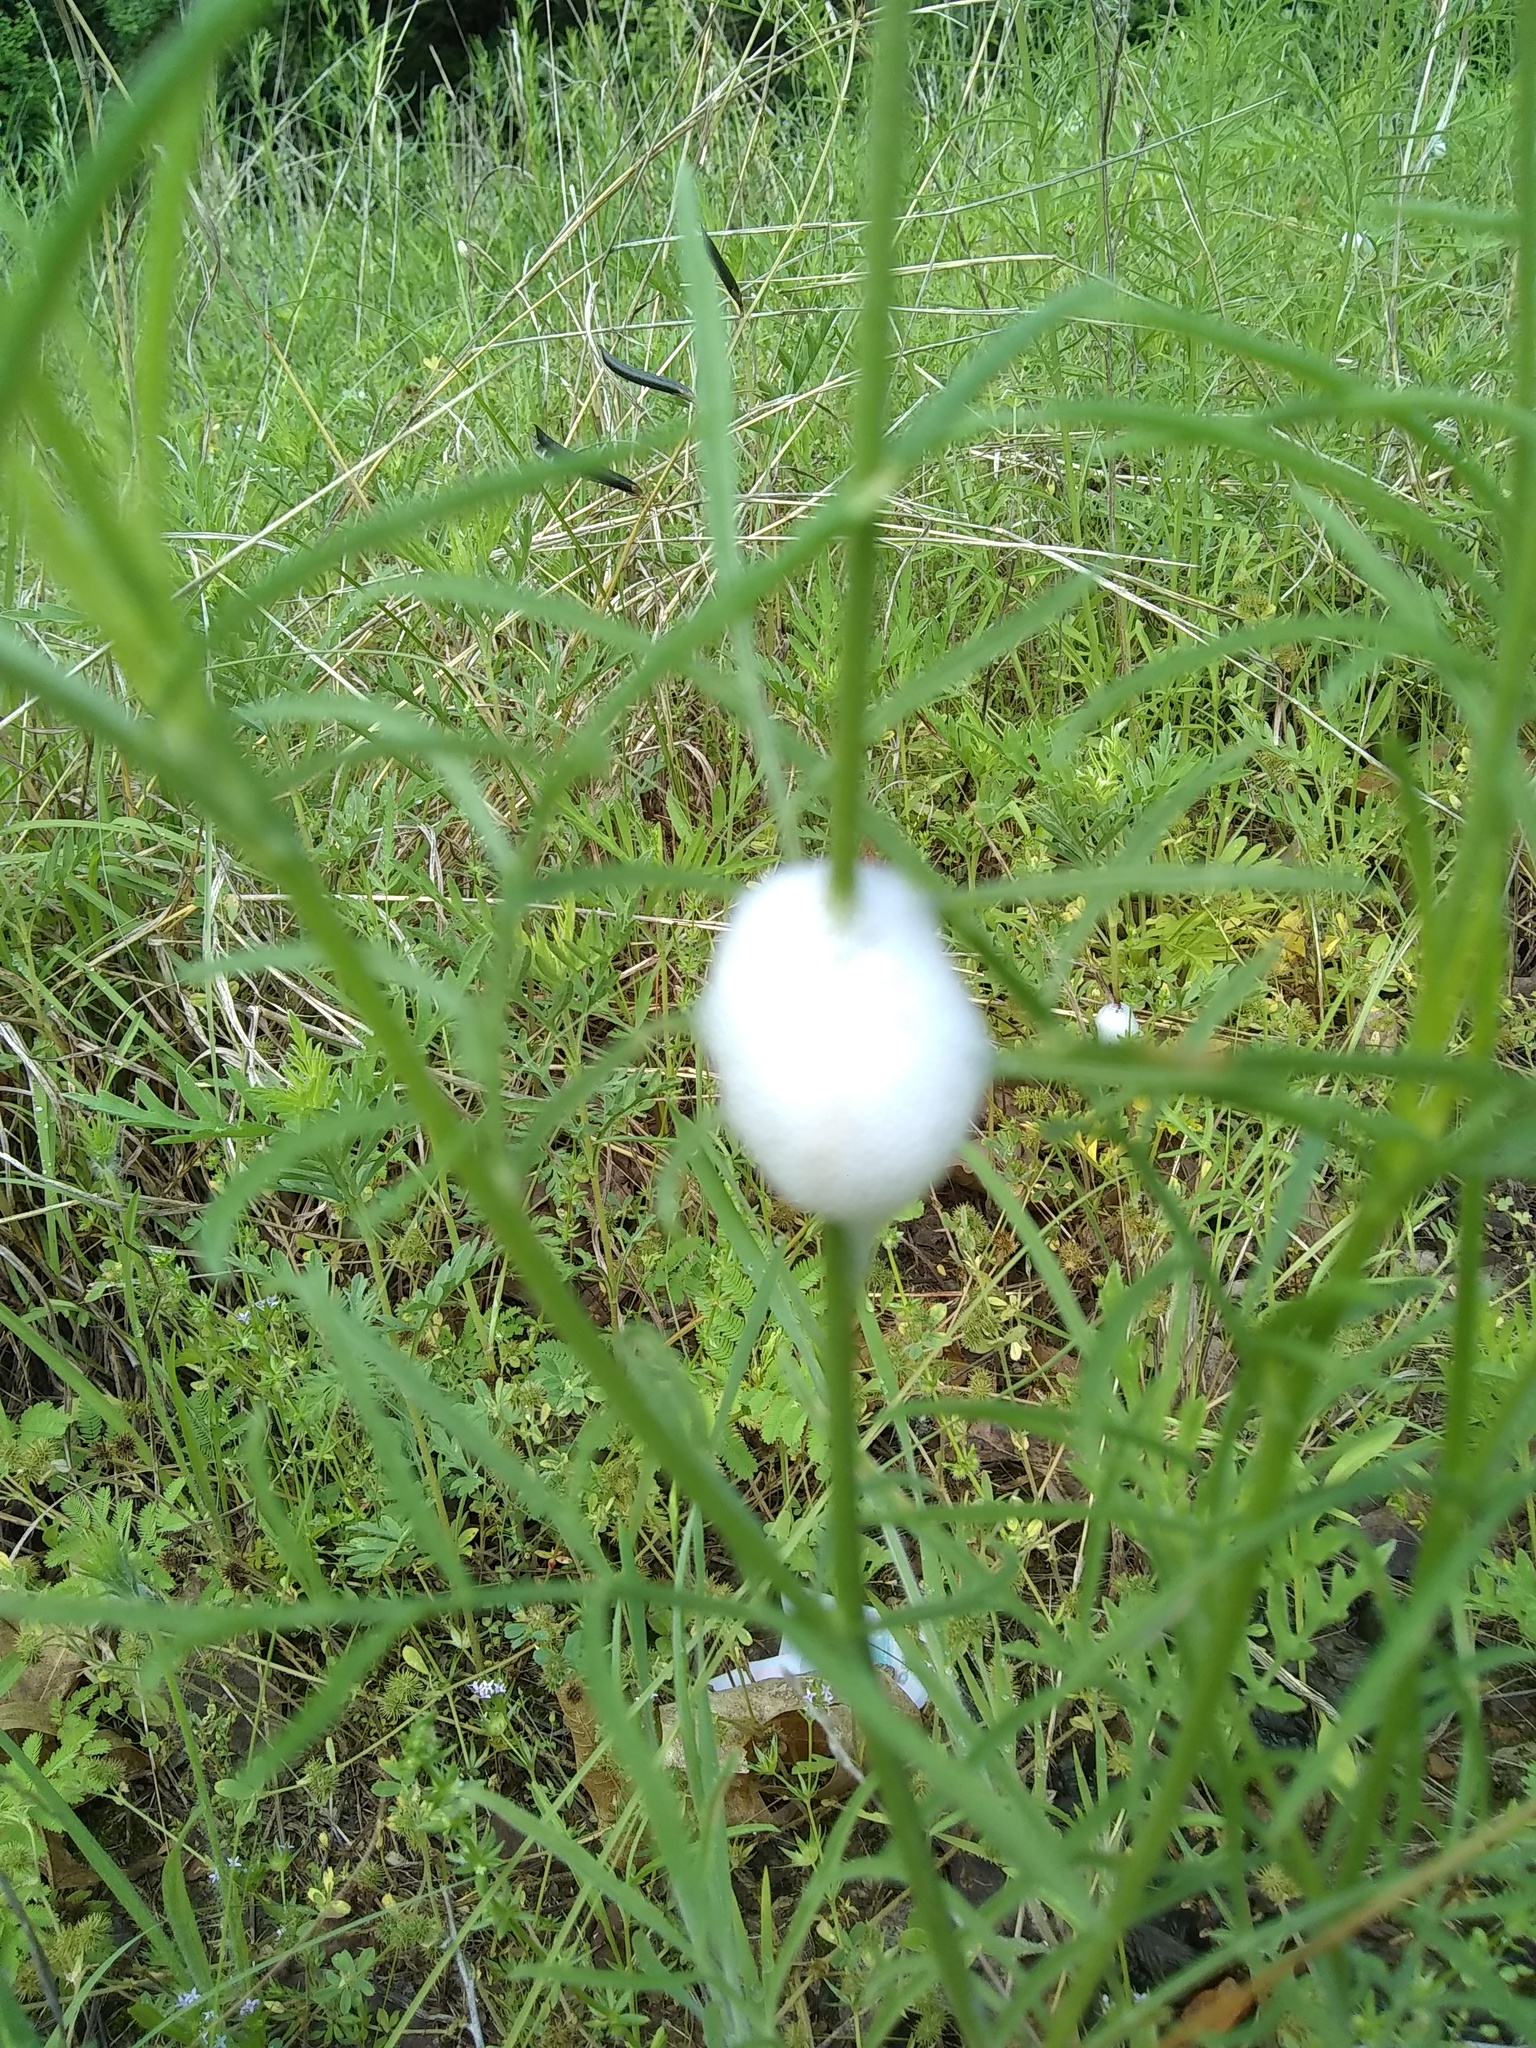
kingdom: Animalia
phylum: Arthropoda
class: Insecta
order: Hemiptera
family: Aphrophoridae
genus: Lepyronia
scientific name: Lepyronia gibbosa
